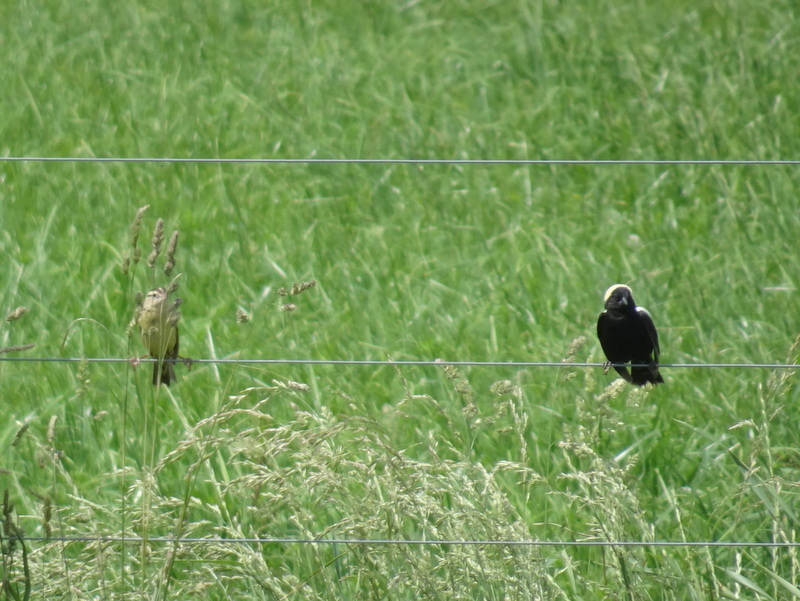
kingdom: Animalia
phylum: Chordata
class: Aves
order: Passeriformes
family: Icteridae
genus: Dolichonyx
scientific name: Dolichonyx oryzivorus
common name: Bobolink
